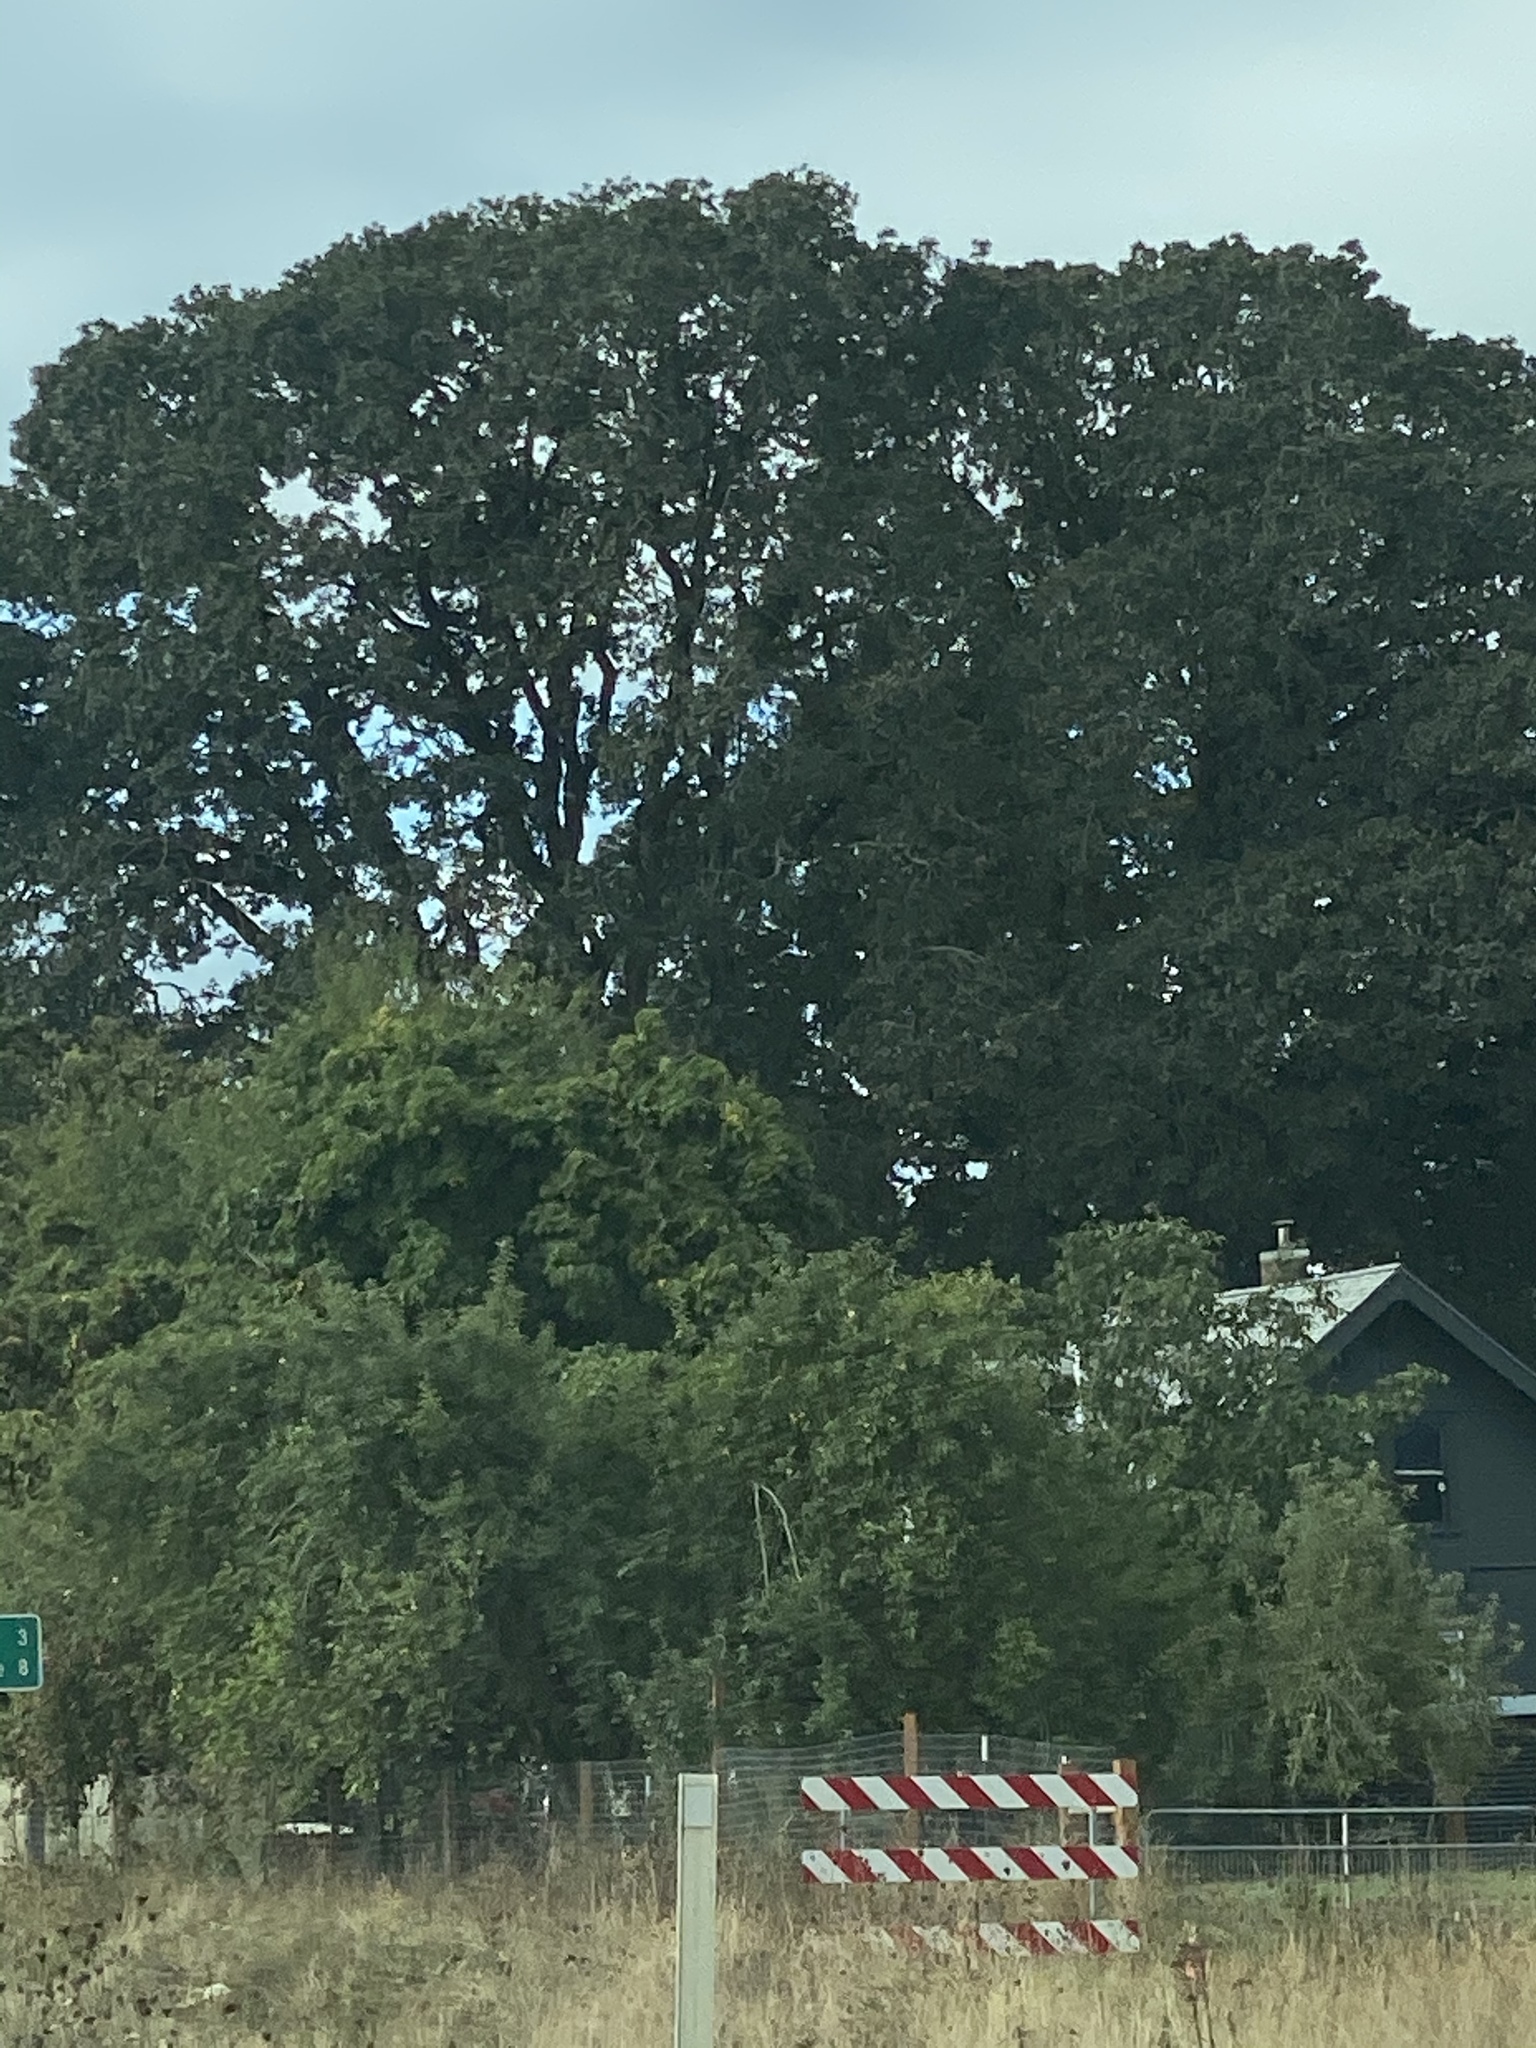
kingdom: Plantae
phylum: Tracheophyta
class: Magnoliopsida
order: Fagales
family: Fagaceae
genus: Quercus
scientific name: Quercus garryana
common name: Garry oak
